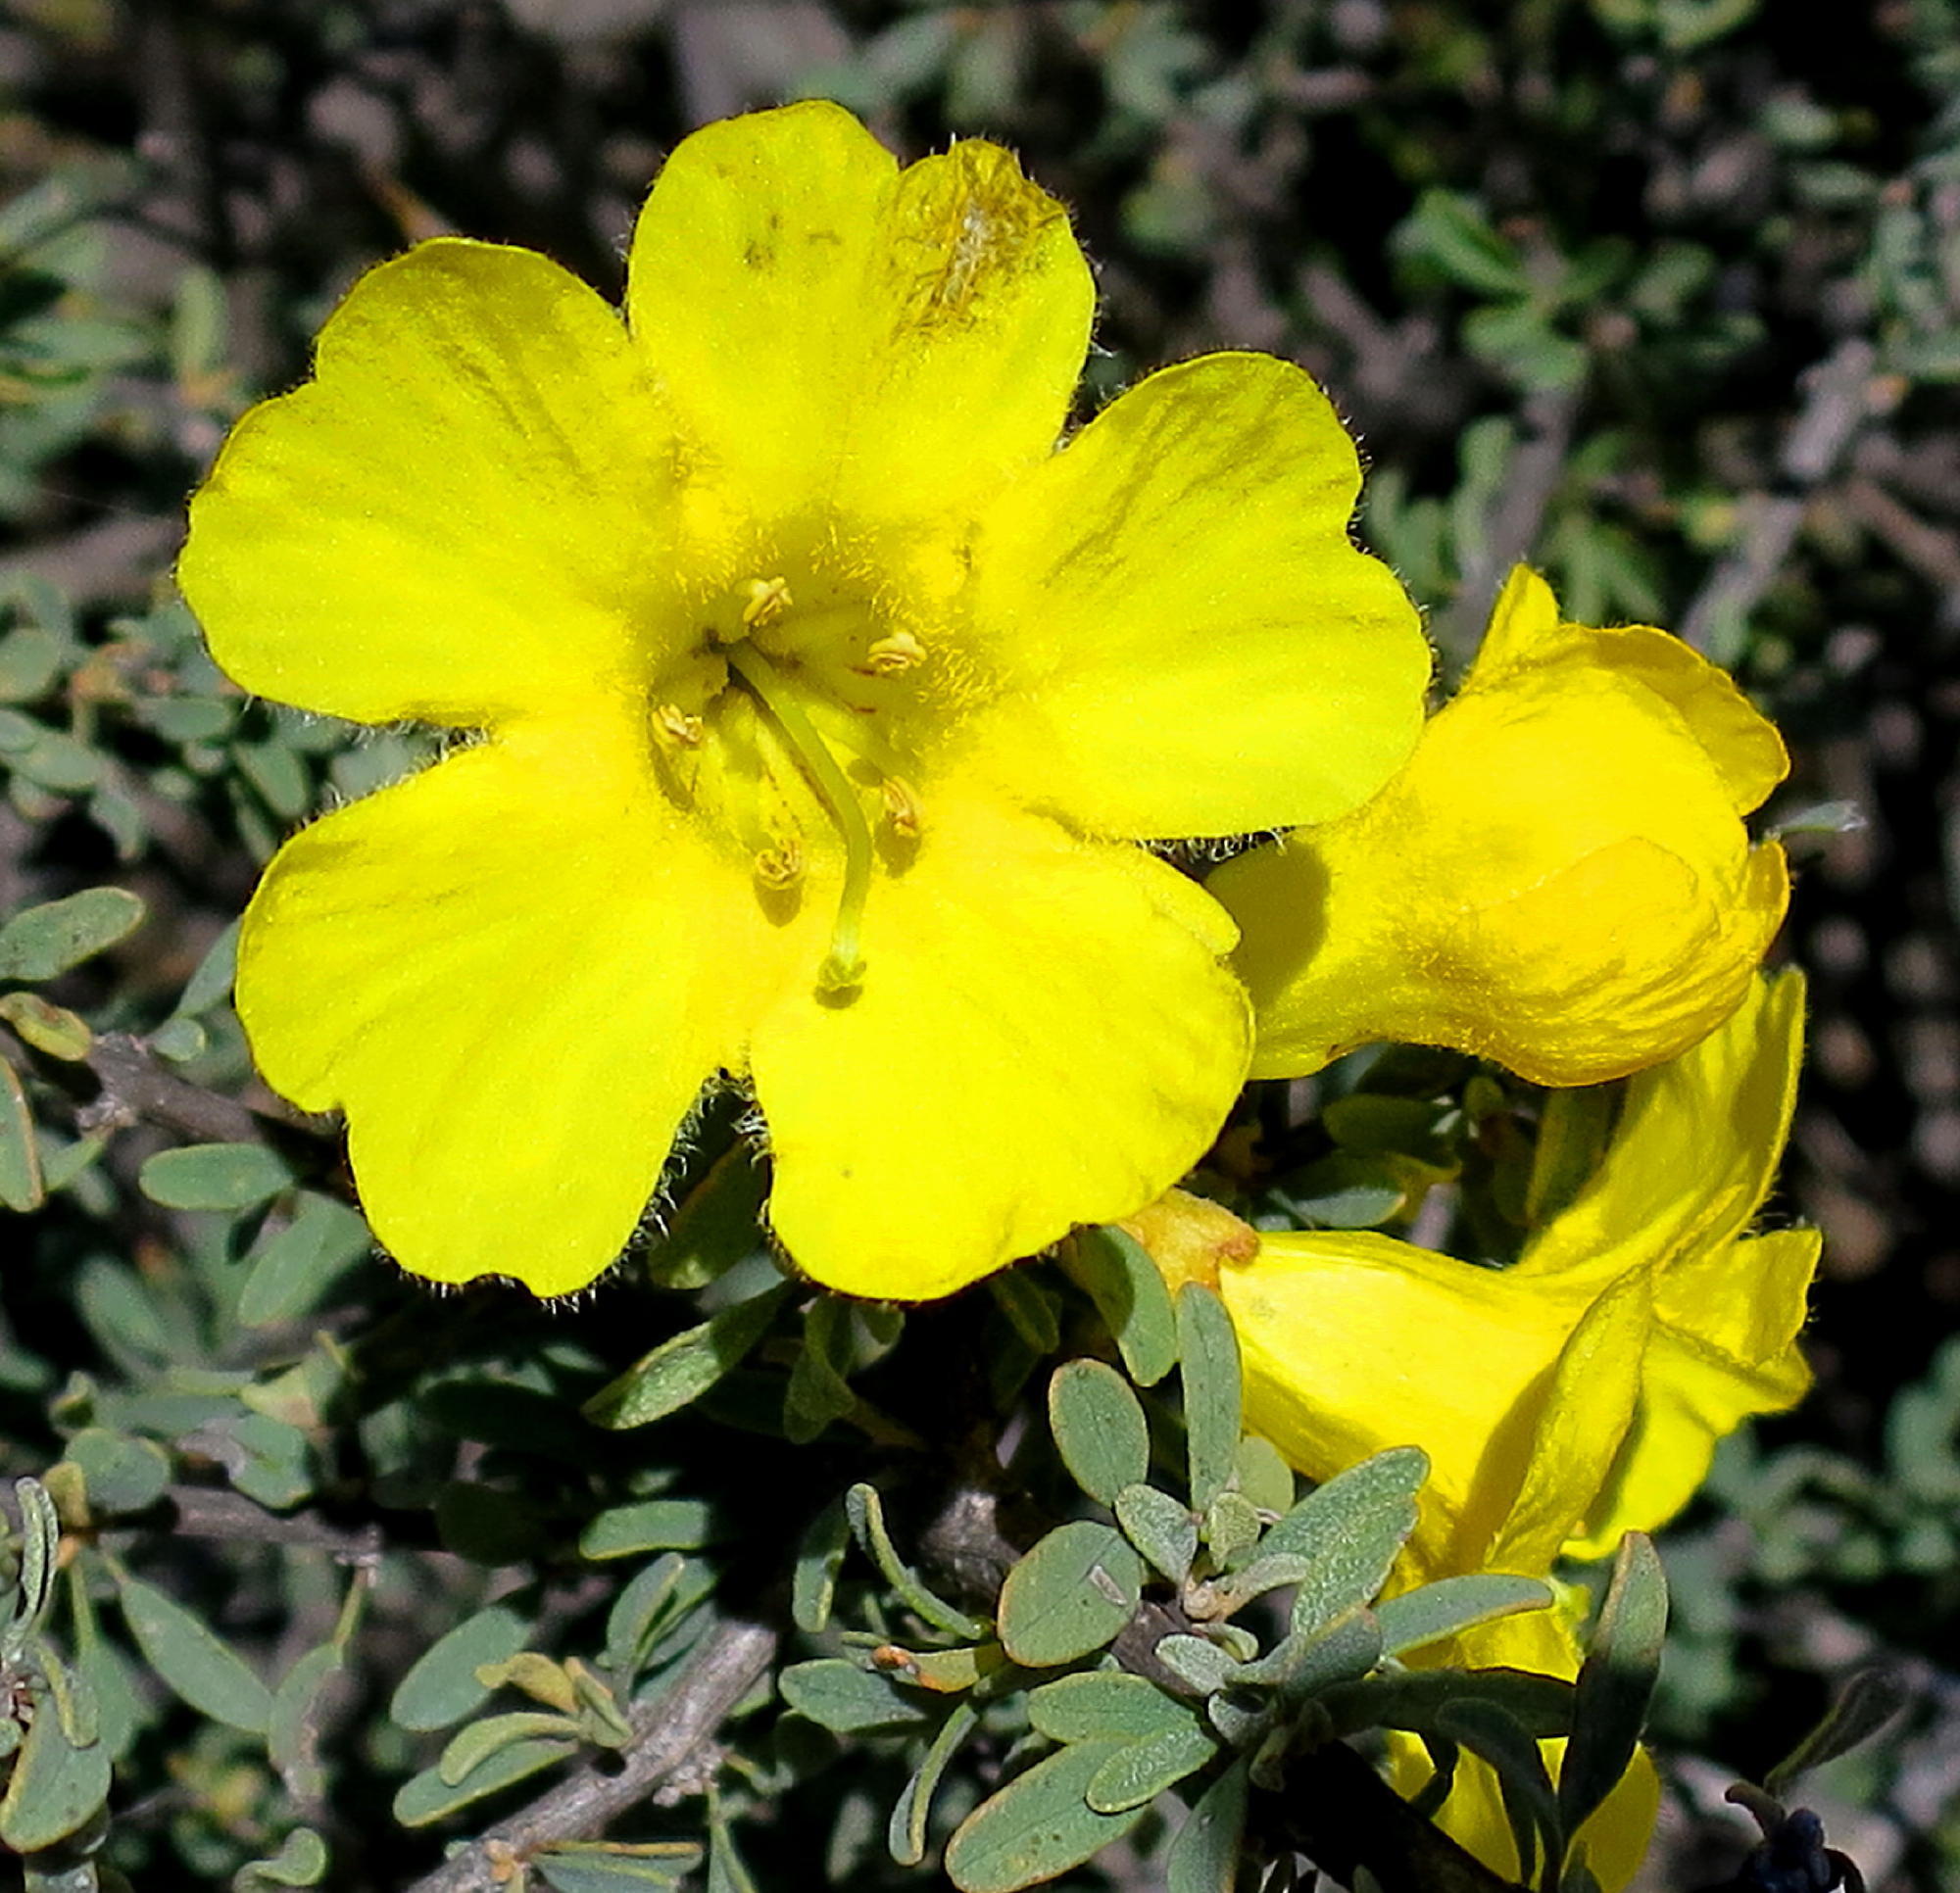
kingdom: Plantae
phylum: Tracheophyta
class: Magnoliopsida
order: Lamiales
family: Bignoniaceae
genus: Rhigozum
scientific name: Rhigozum obovatum
